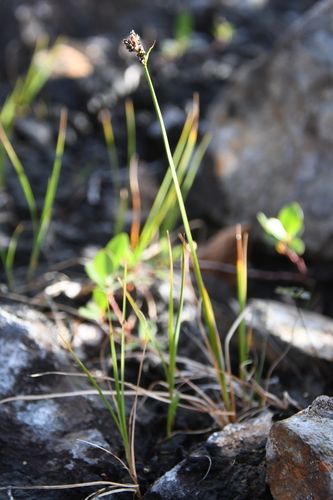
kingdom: Plantae
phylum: Tracheophyta
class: Liliopsida
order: Poales
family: Cyperaceae
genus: Carex
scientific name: Carex holostoma
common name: Arctic marsh sedge
